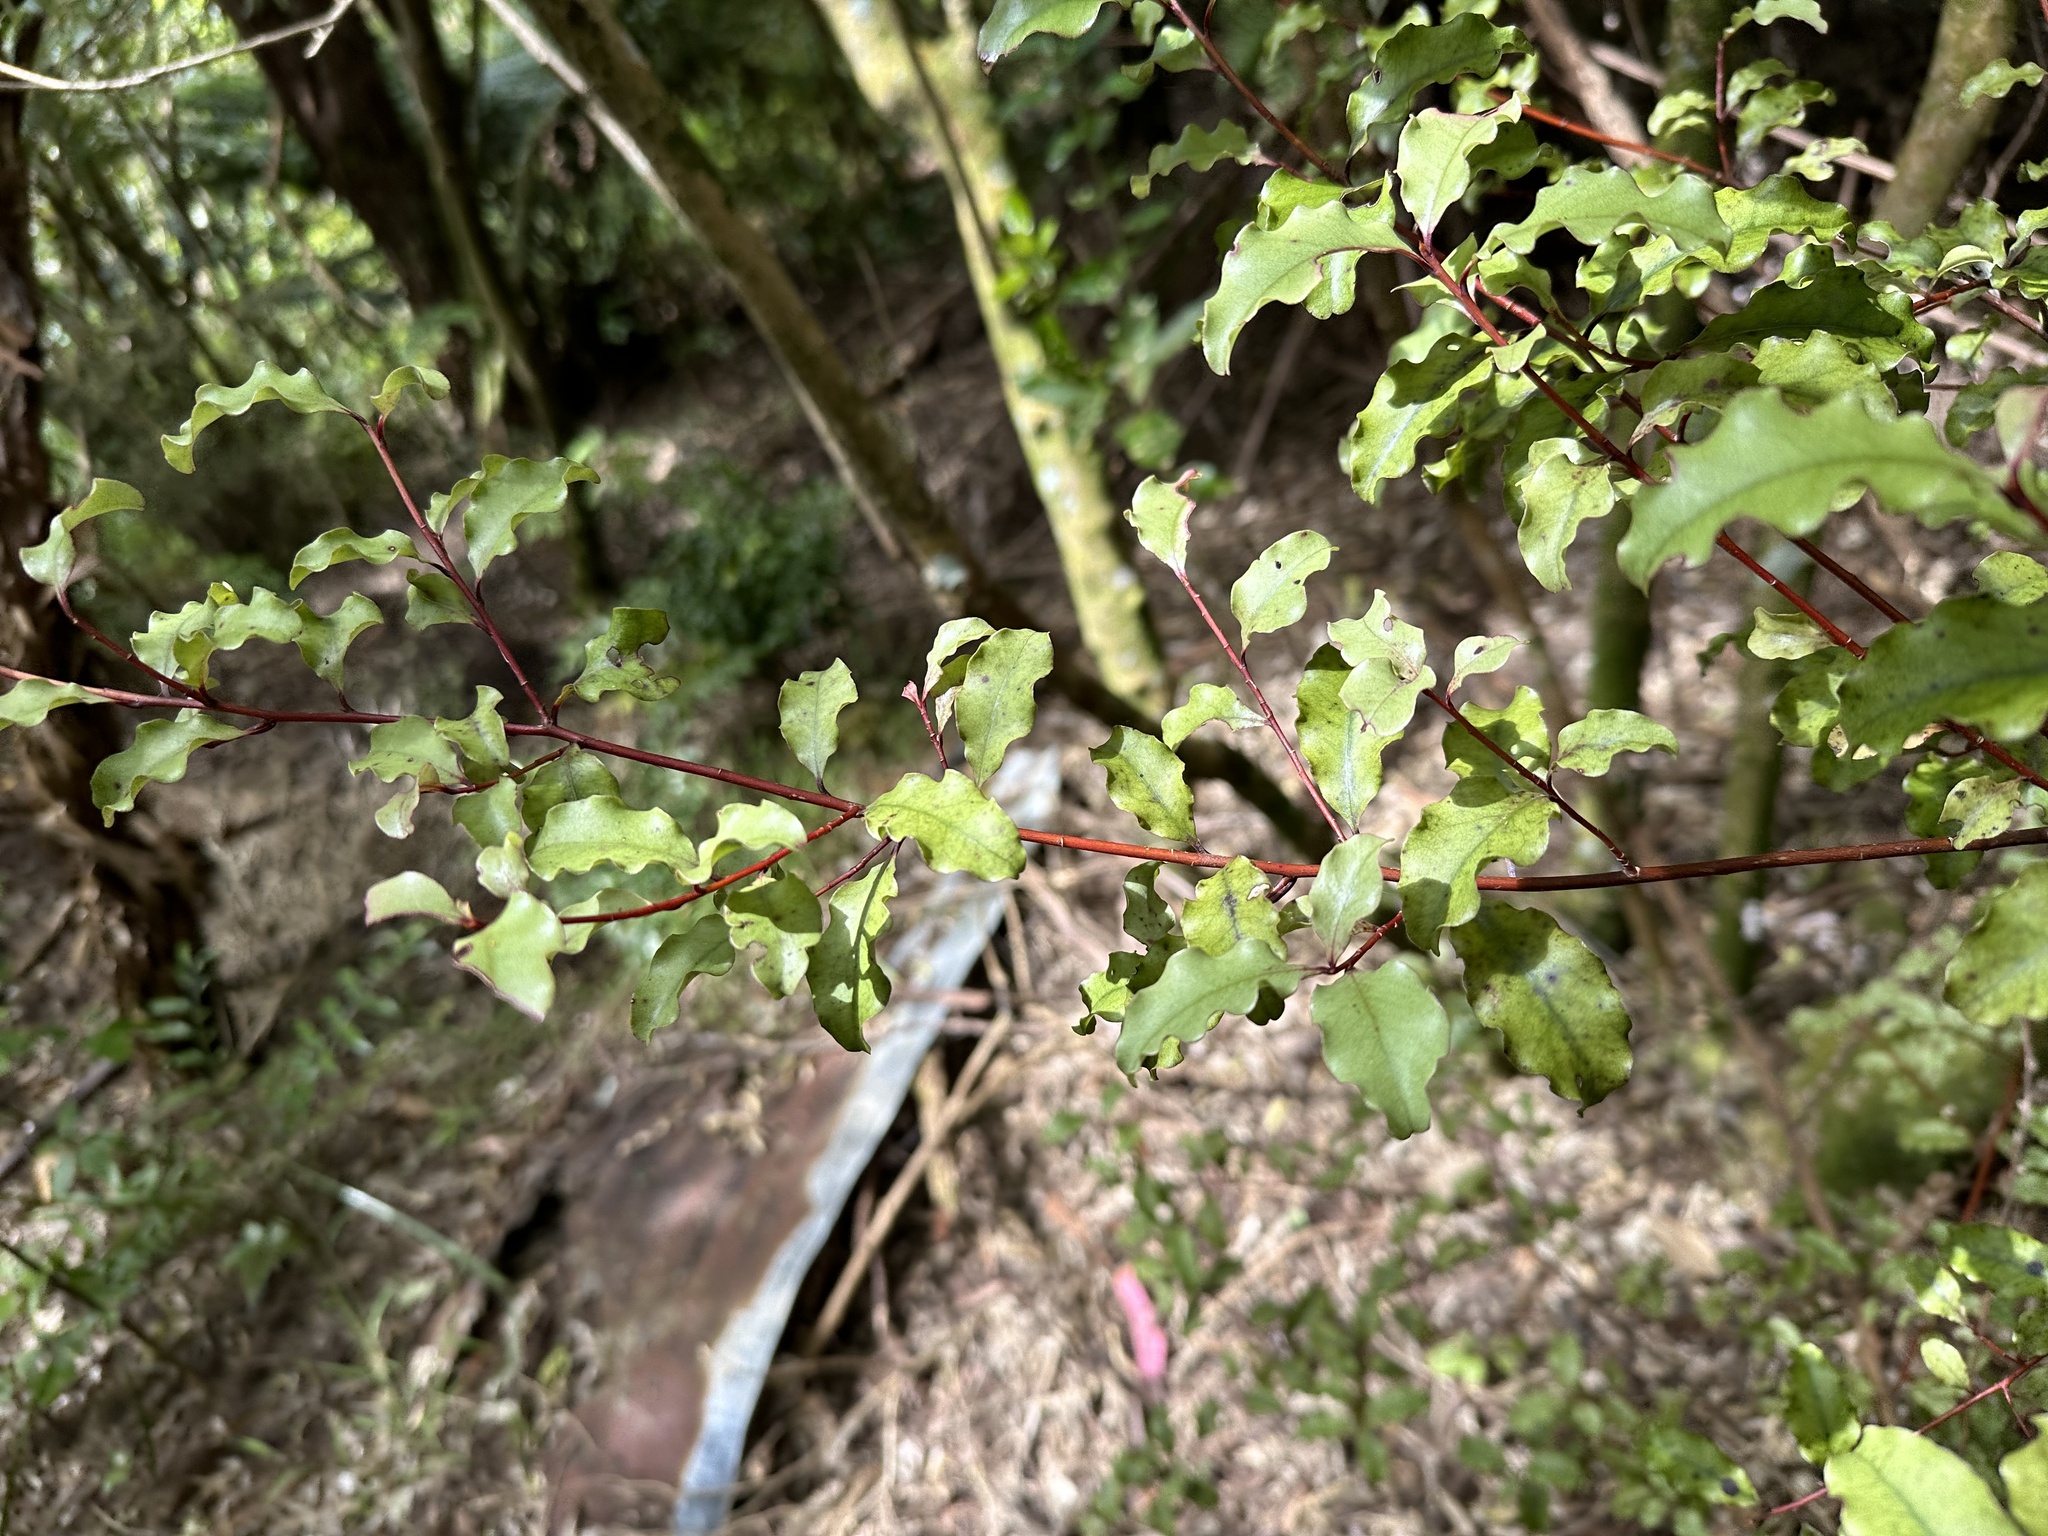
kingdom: Plantae
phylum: Tracheophyta
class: Magnoliopsida
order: Ericales
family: Primulaceae
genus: Myrsine
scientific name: Myrsine australis
